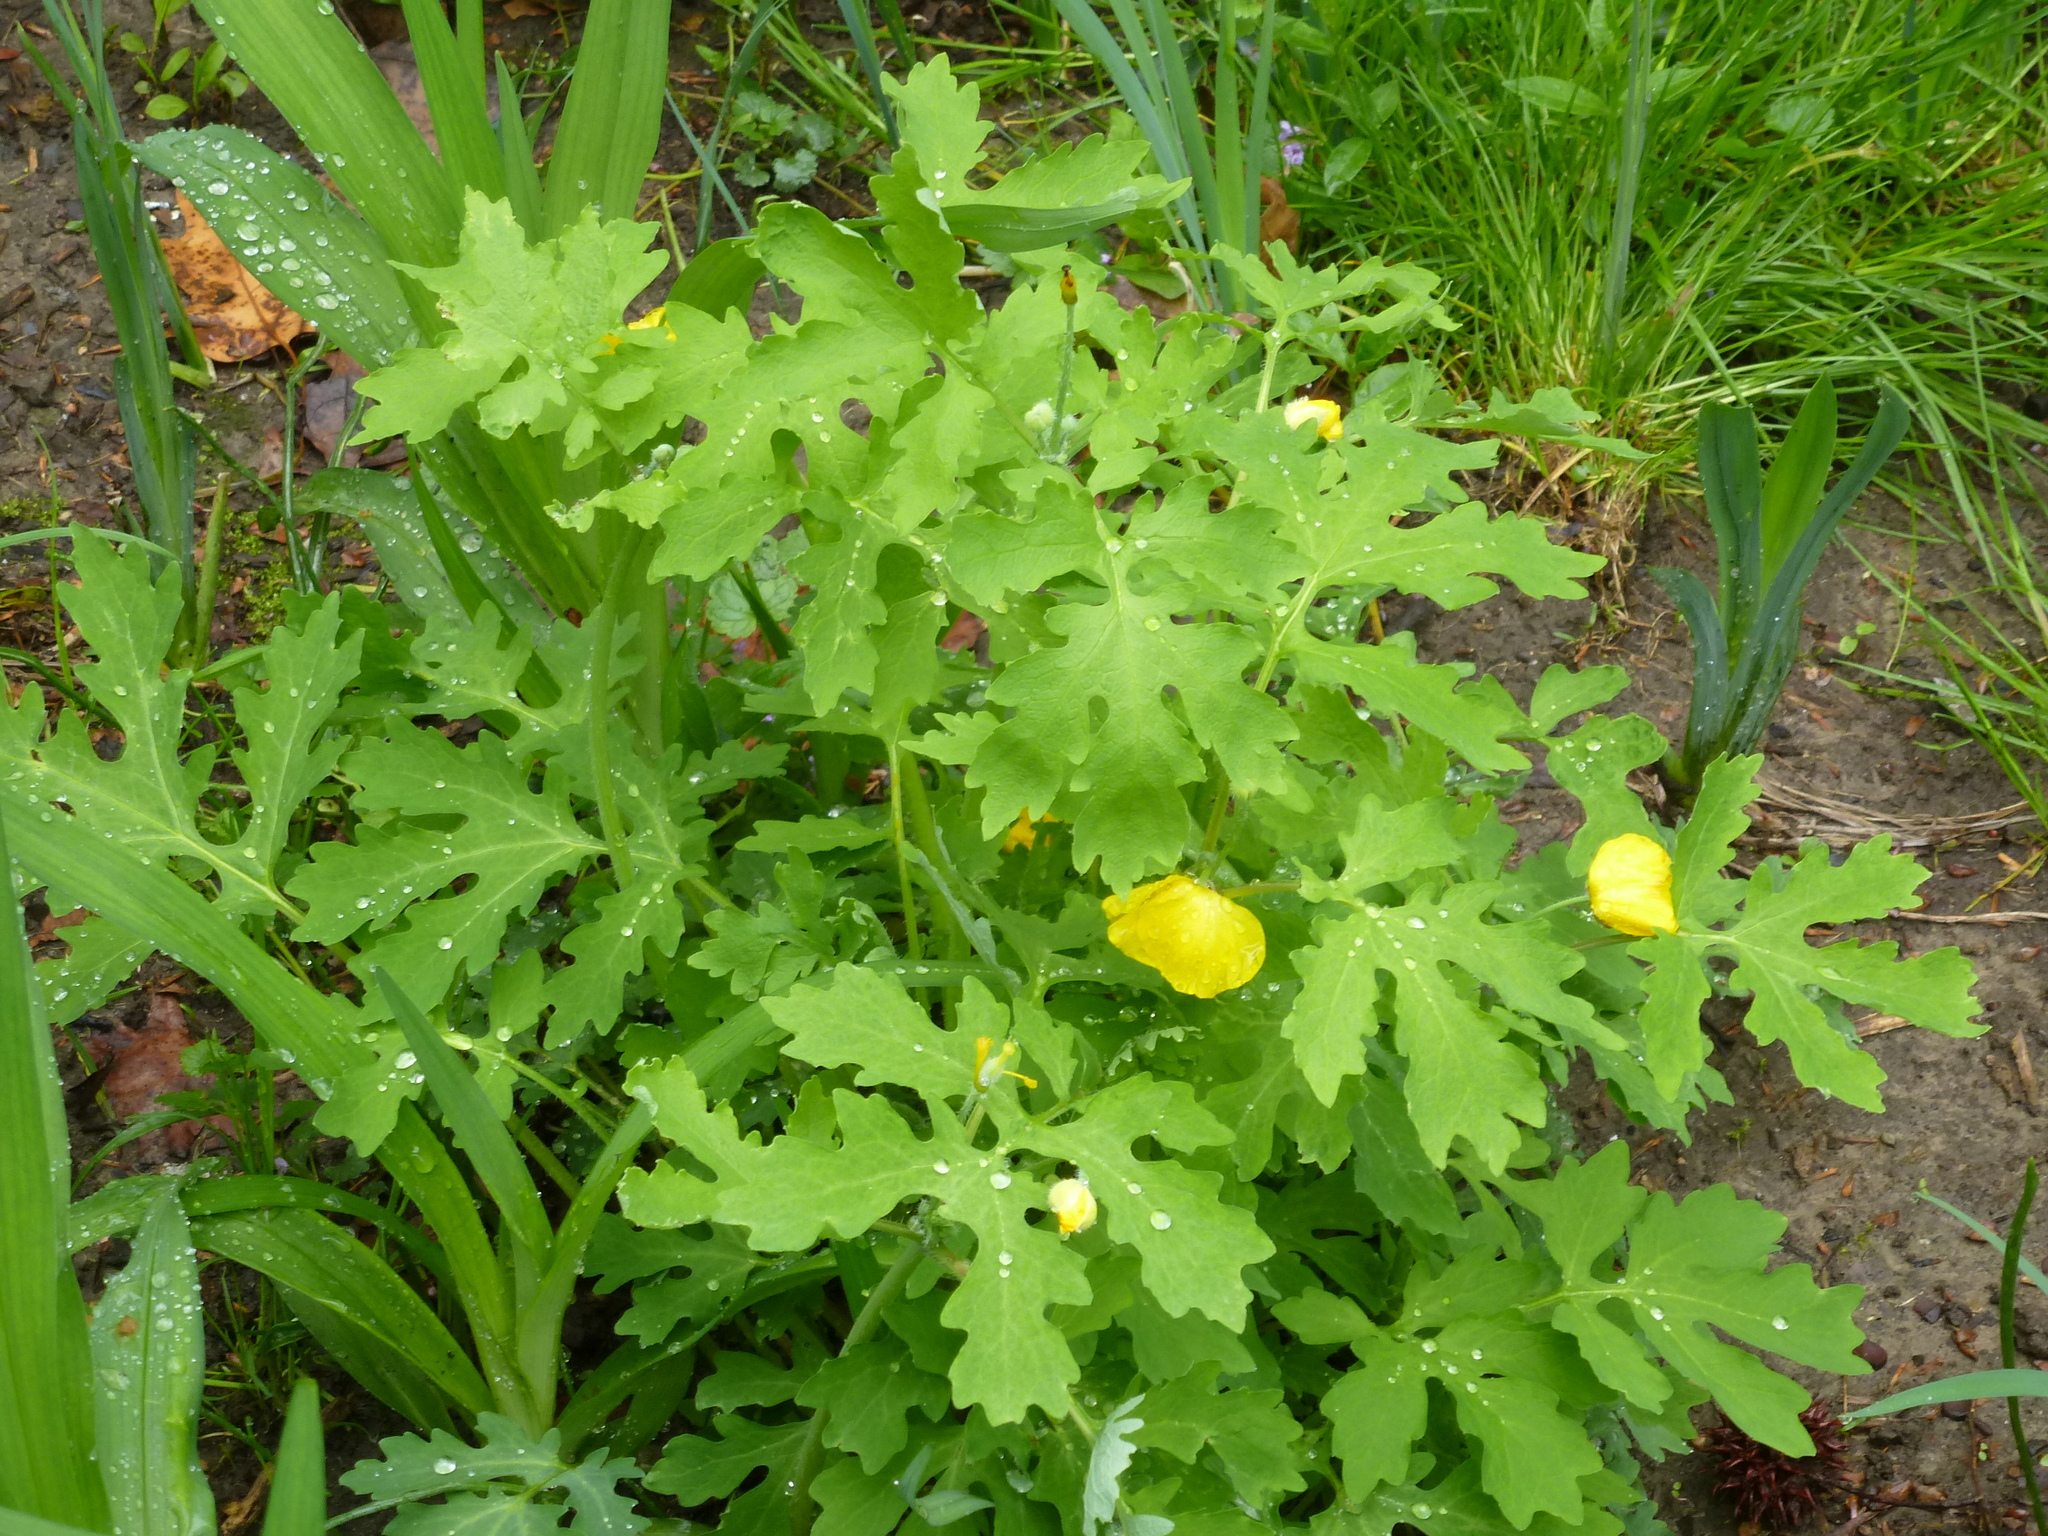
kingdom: Plantae
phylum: Tracheophyta
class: Magnoliopsida
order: Ranunculales
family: Papaveraceae
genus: Stylophorum
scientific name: Stylophorum diphyllum
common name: Celandine poppy
